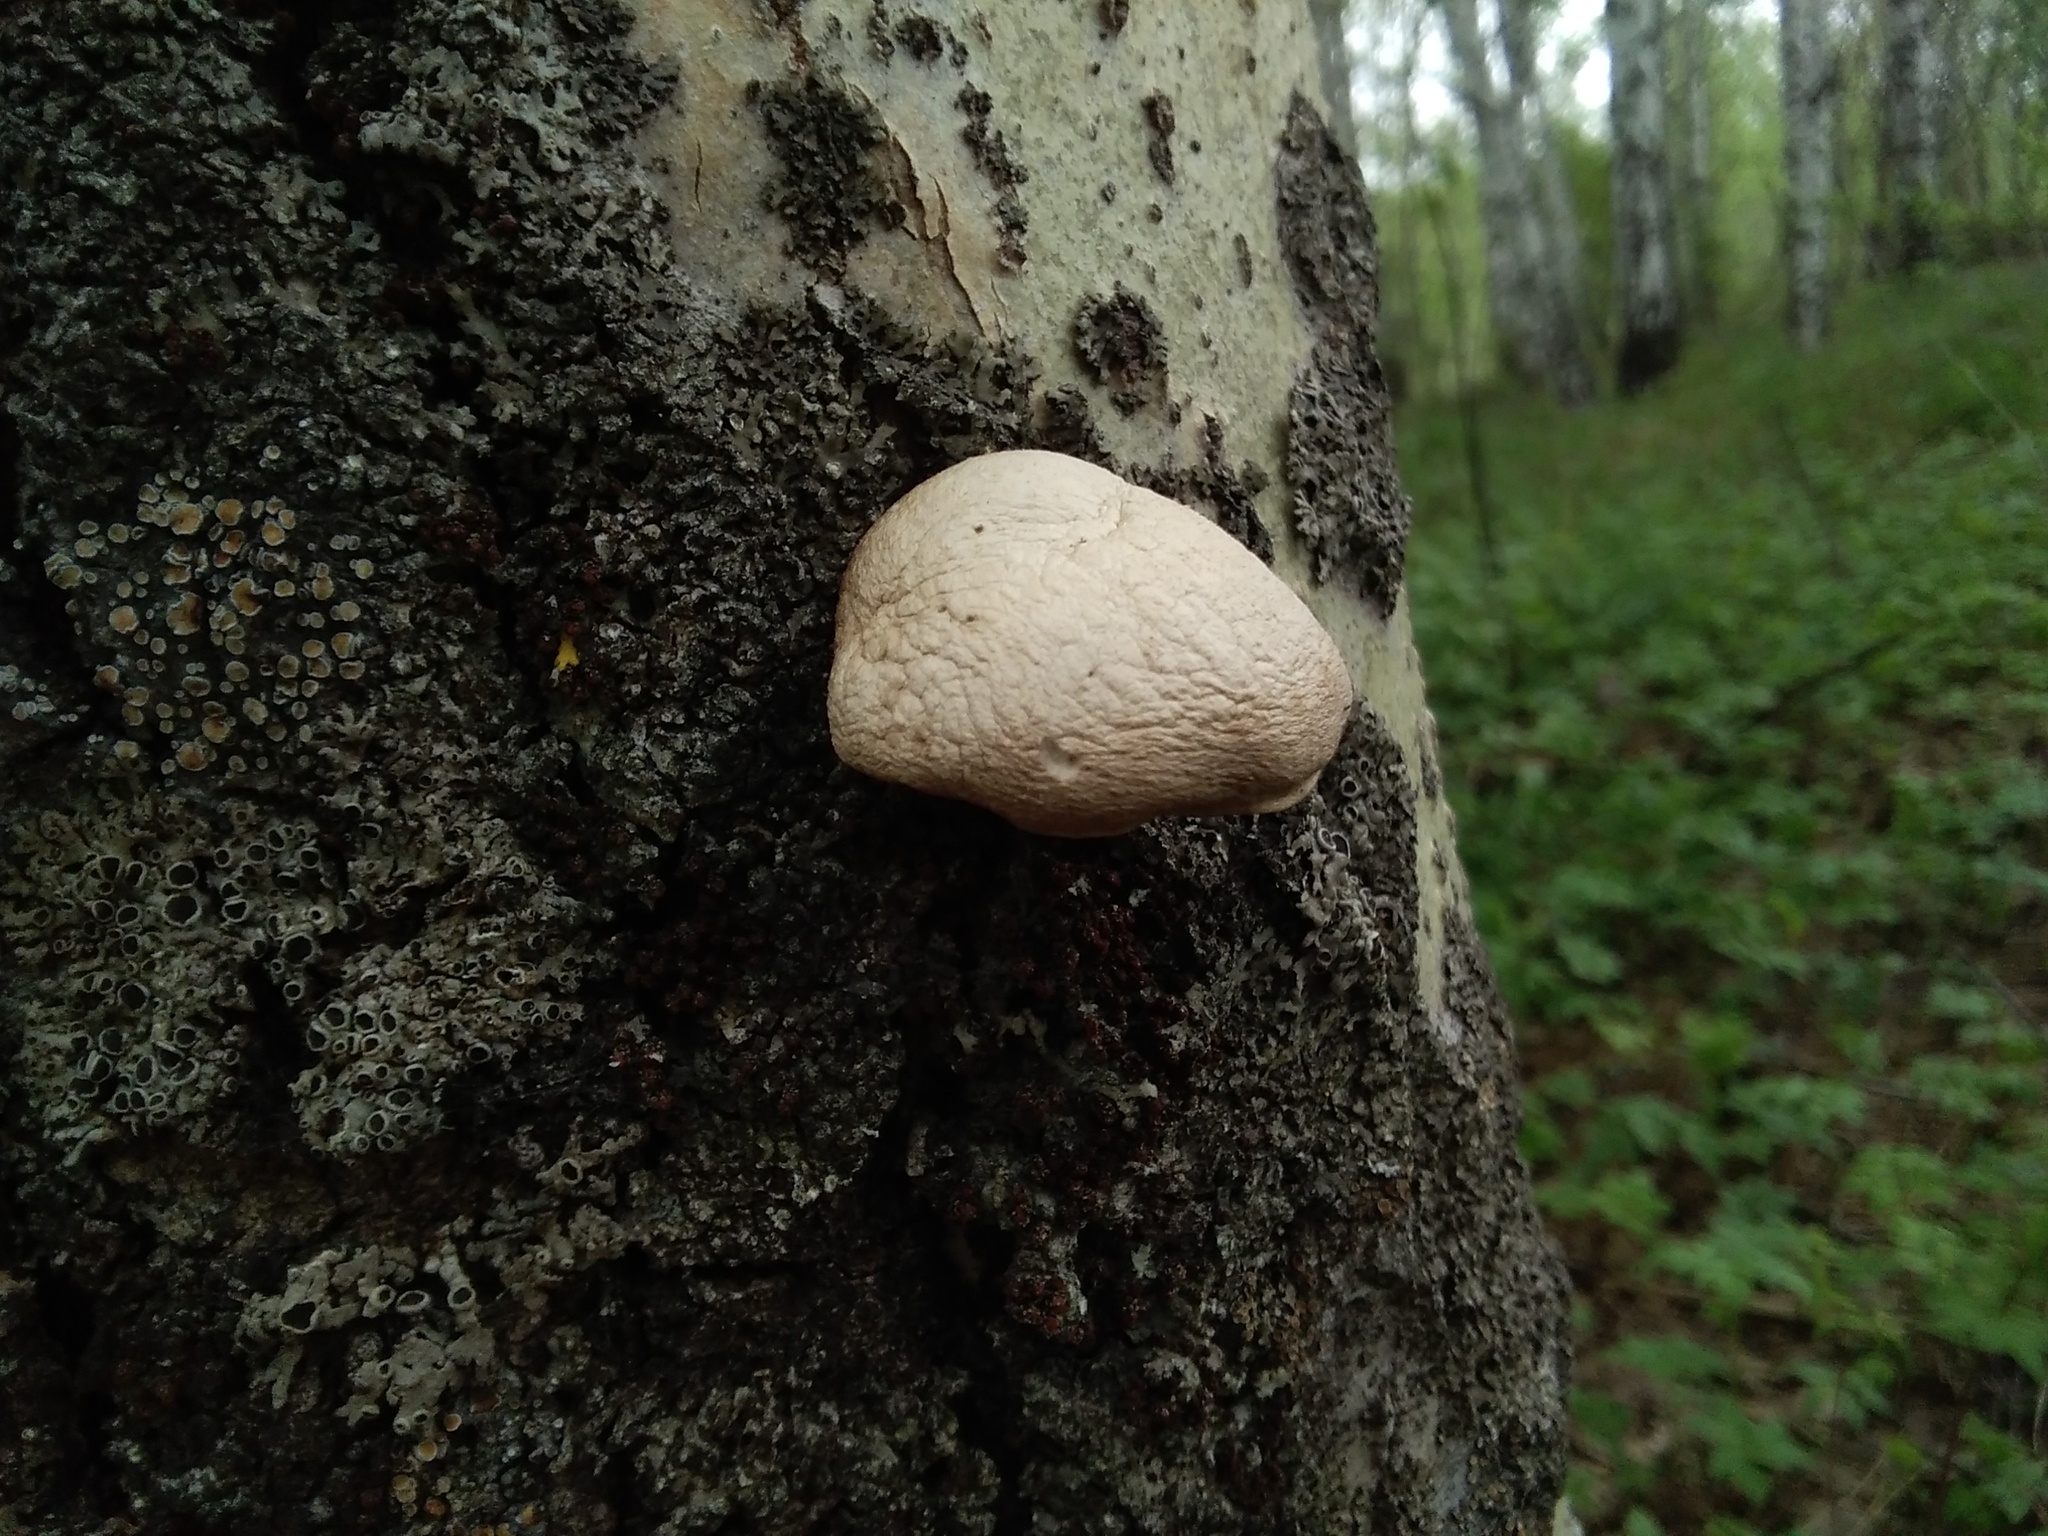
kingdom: Fungi
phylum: Basidiomycota
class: Agaricomycetes
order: Agaricales
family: Pleurotaceae
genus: Pleurotus
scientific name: Pleurotus calyptratus
